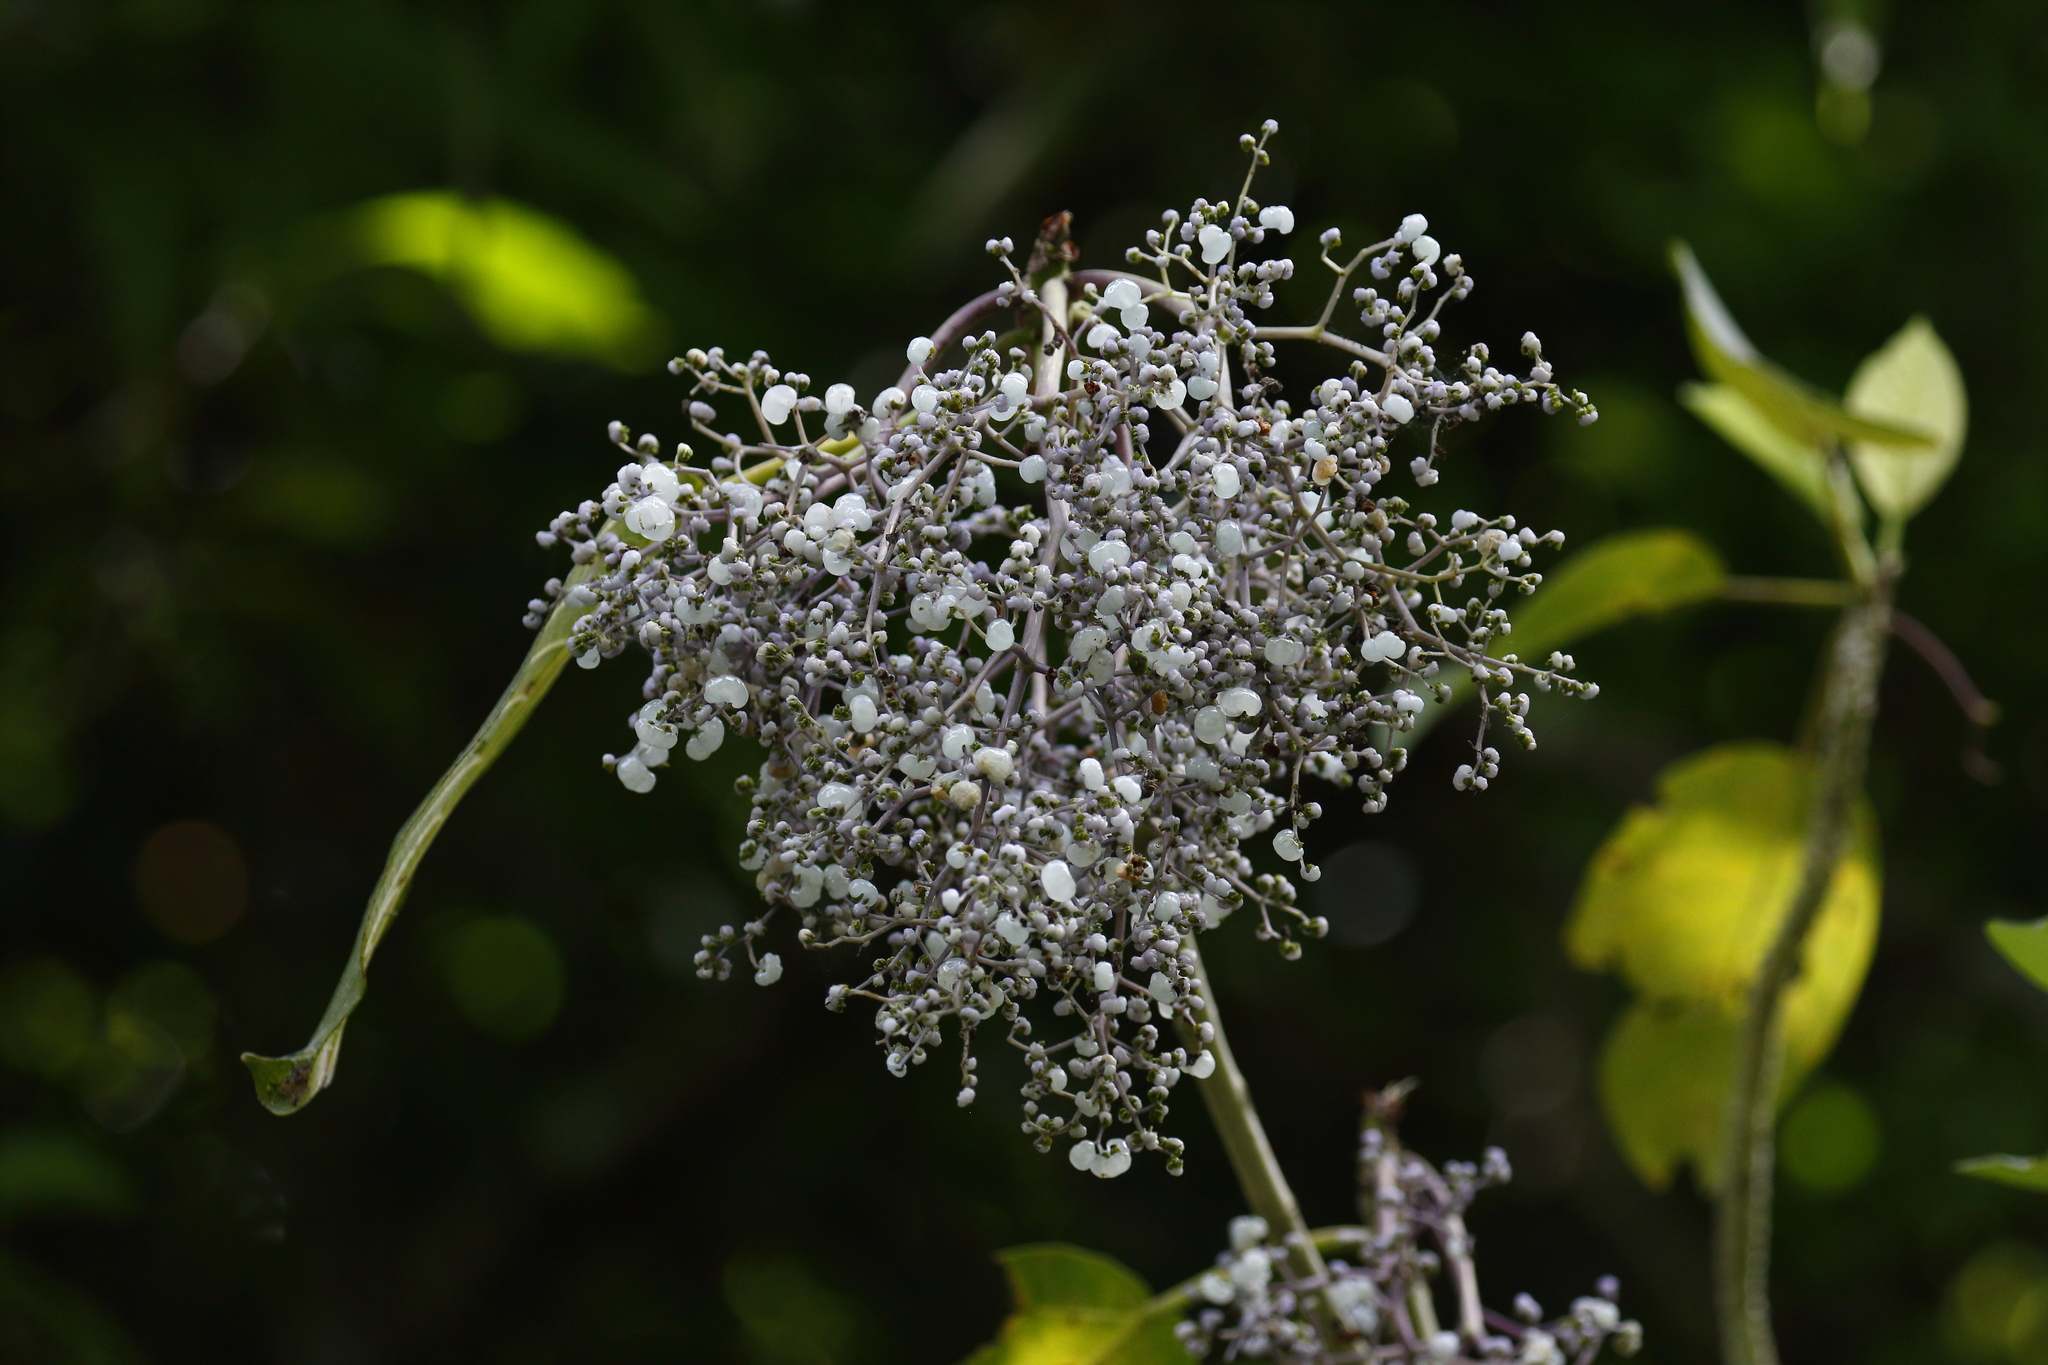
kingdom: Plantae
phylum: Tracheophyta
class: Magnoliopsida
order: Rosales
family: Urticaceae
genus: Dendrocnide
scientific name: Dendrocnide meyeniana
